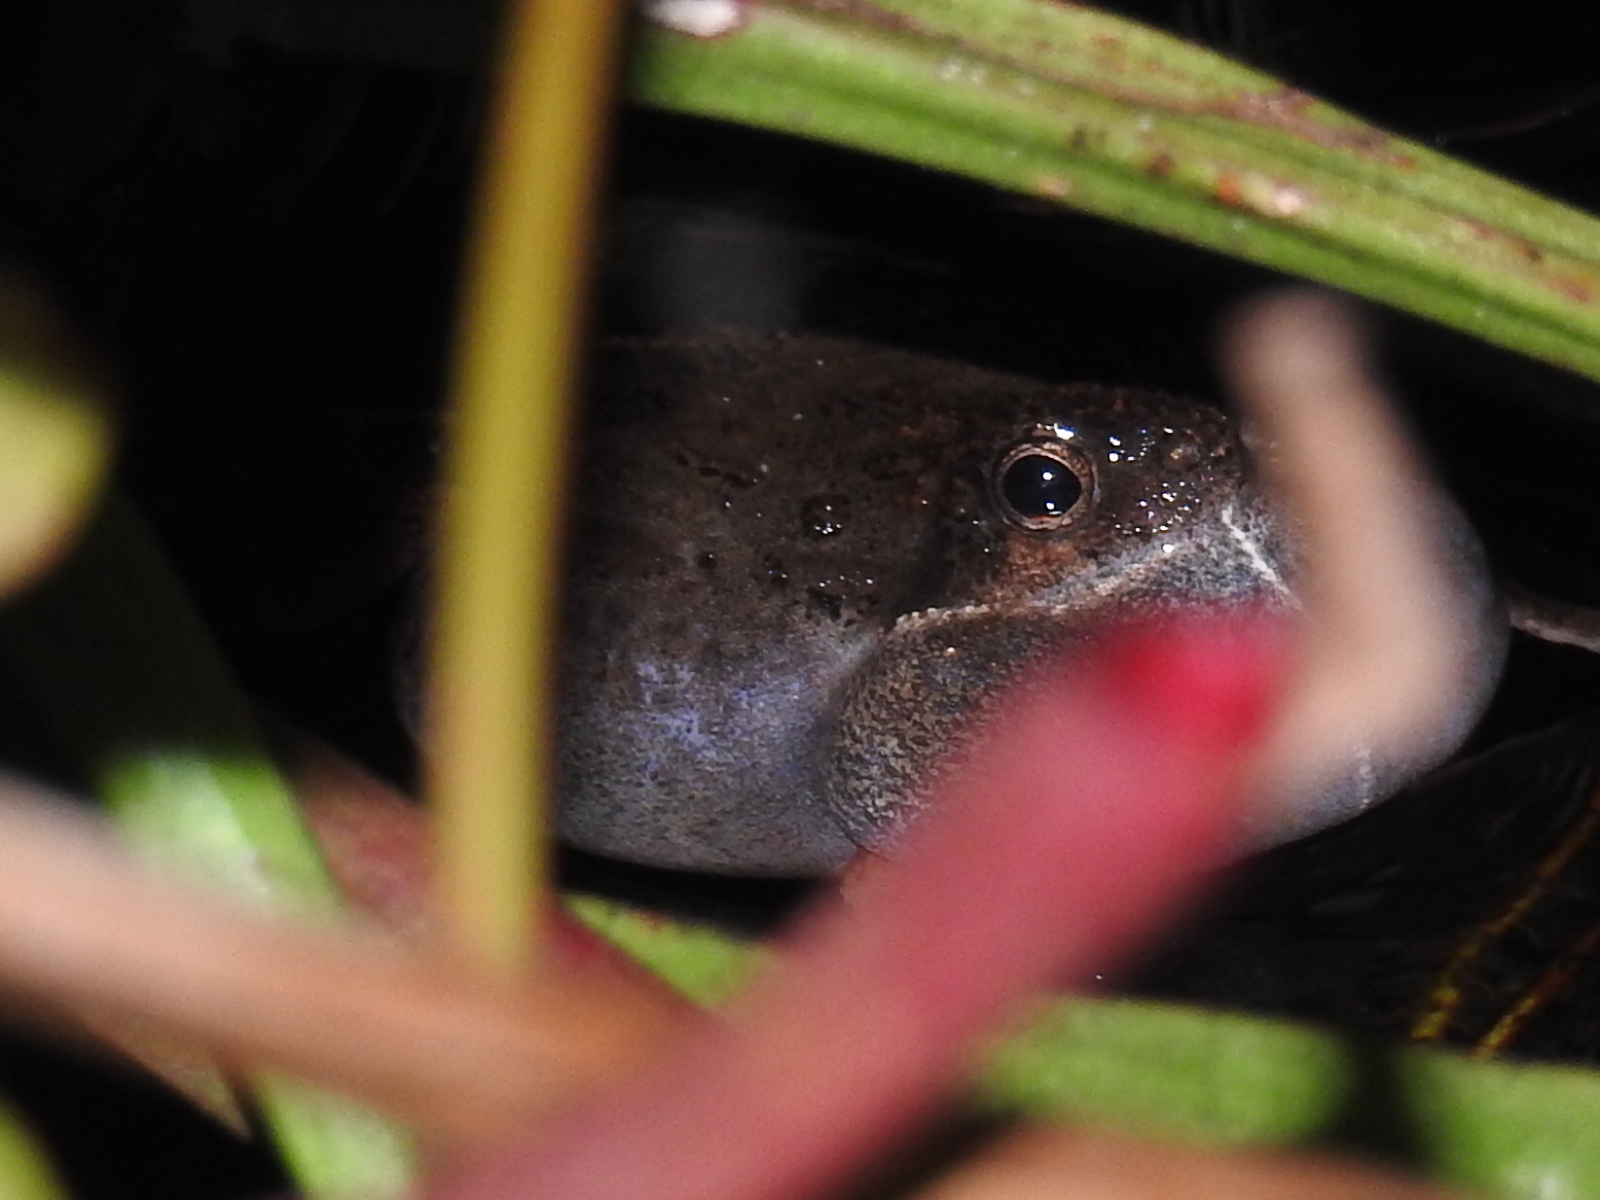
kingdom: Animalia
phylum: Chordata
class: Amphibia
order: Anura
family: Leptodactylidae
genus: Engystomops
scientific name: Engystomops pustulosus
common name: Tungara frog
